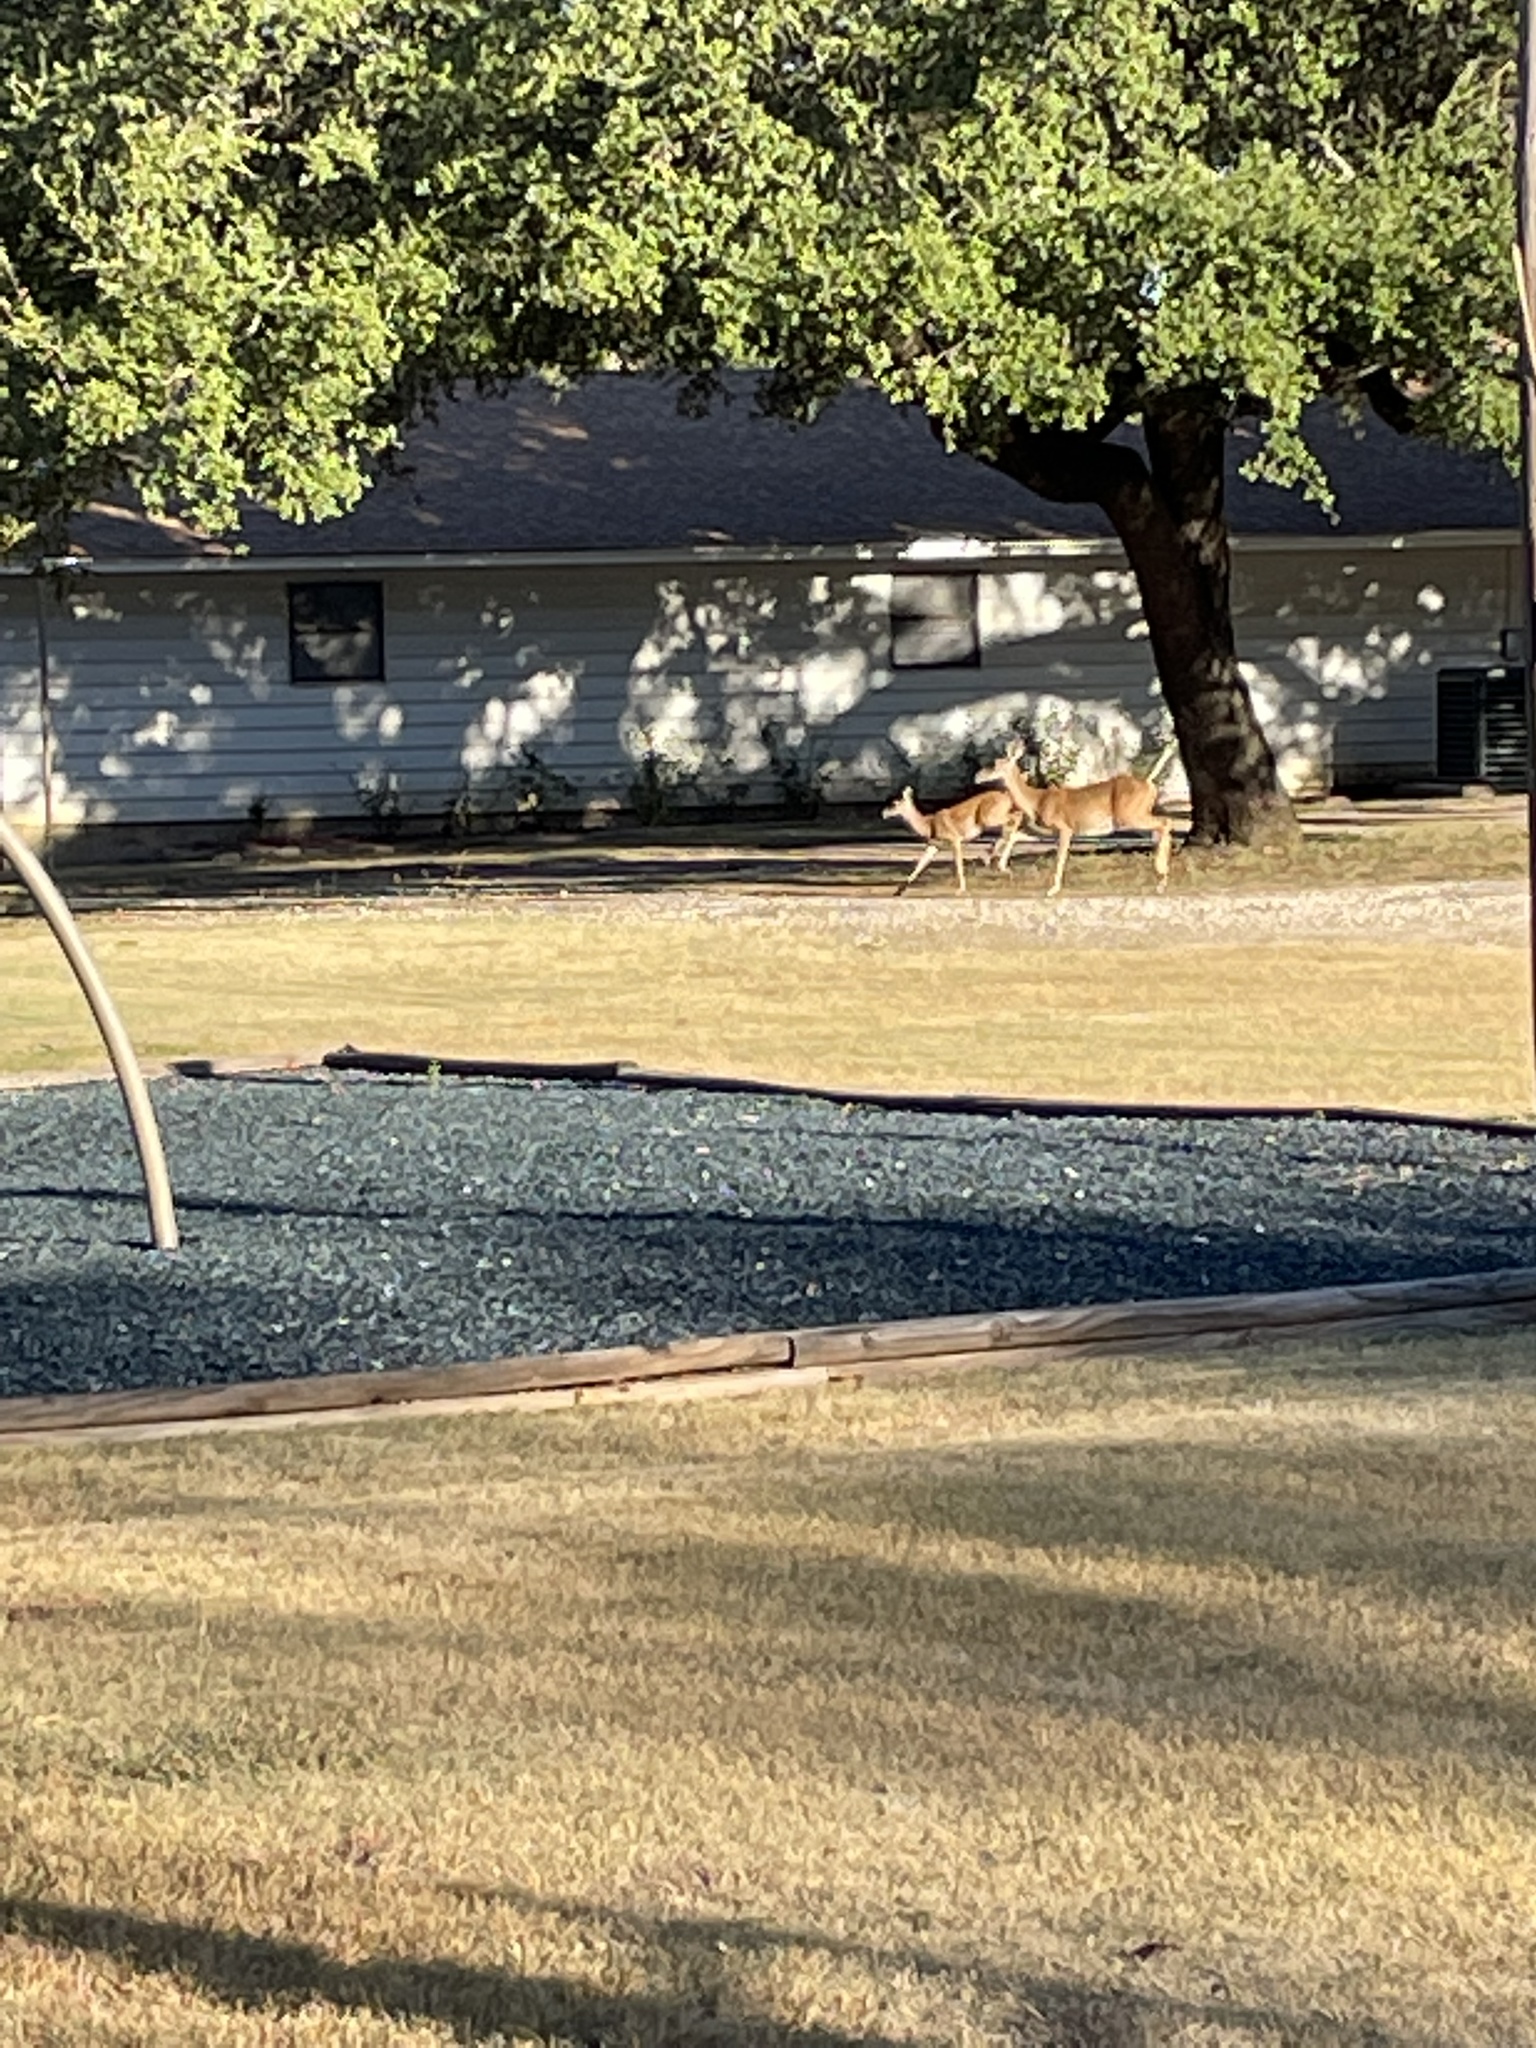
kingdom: Animalia
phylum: Chordata
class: Mammalia
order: Artiodactyla
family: Cervidae
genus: Odocoileus
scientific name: Odocoileus virginianus
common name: White-tailed deer
